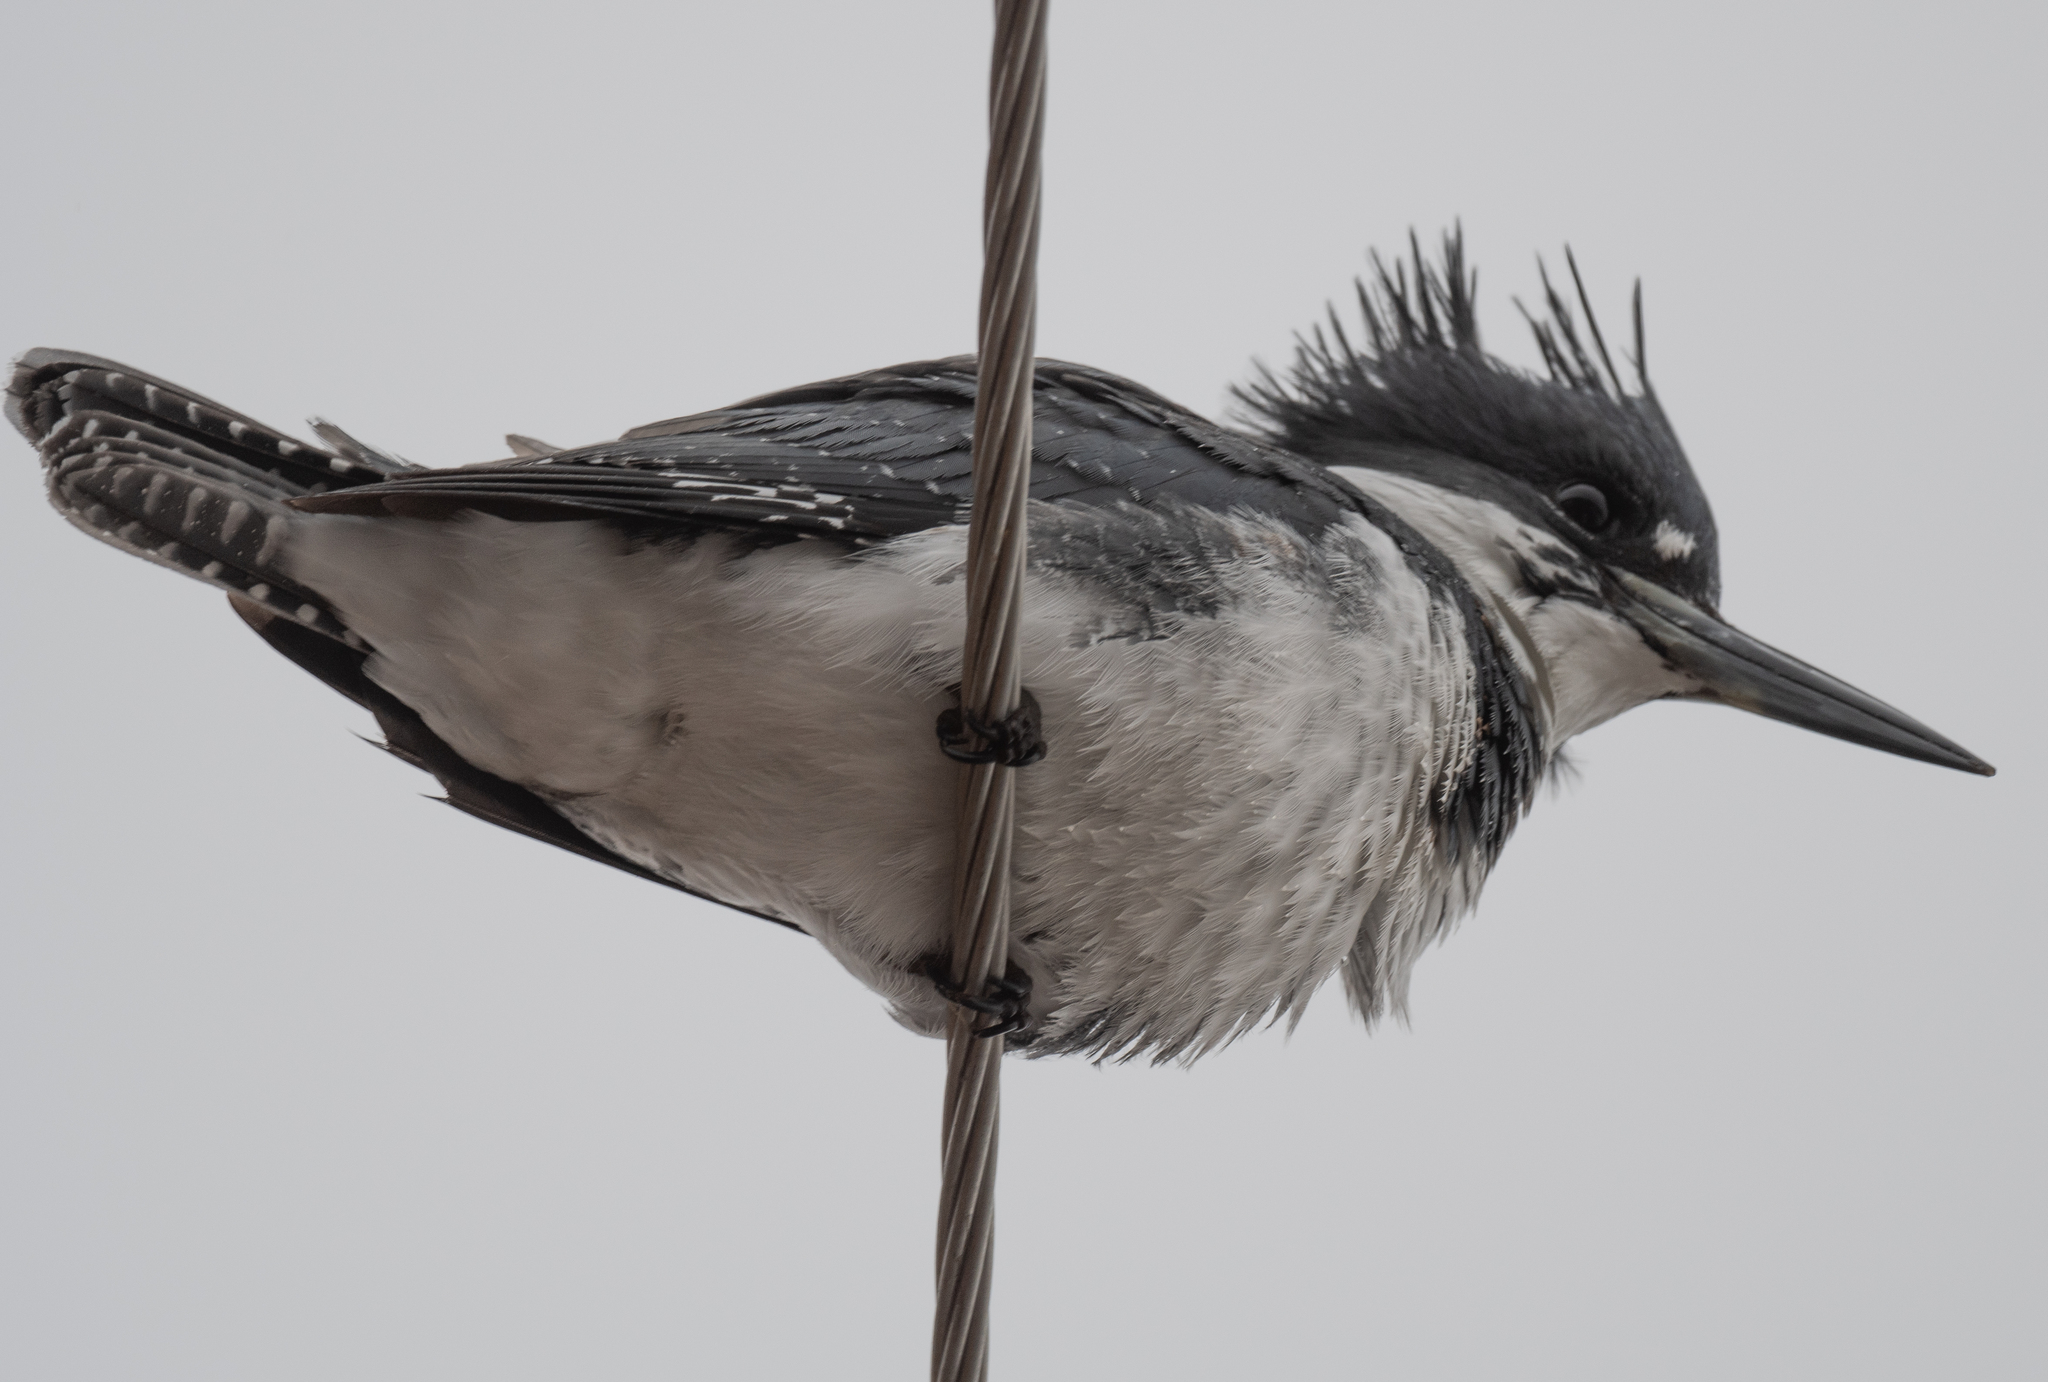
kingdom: Animalia
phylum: Chordata
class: Aves
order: Coraciiformes
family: Alcedinidae
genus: Megaceryle
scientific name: Megaceryle alcyon
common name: Belted kingfisher
